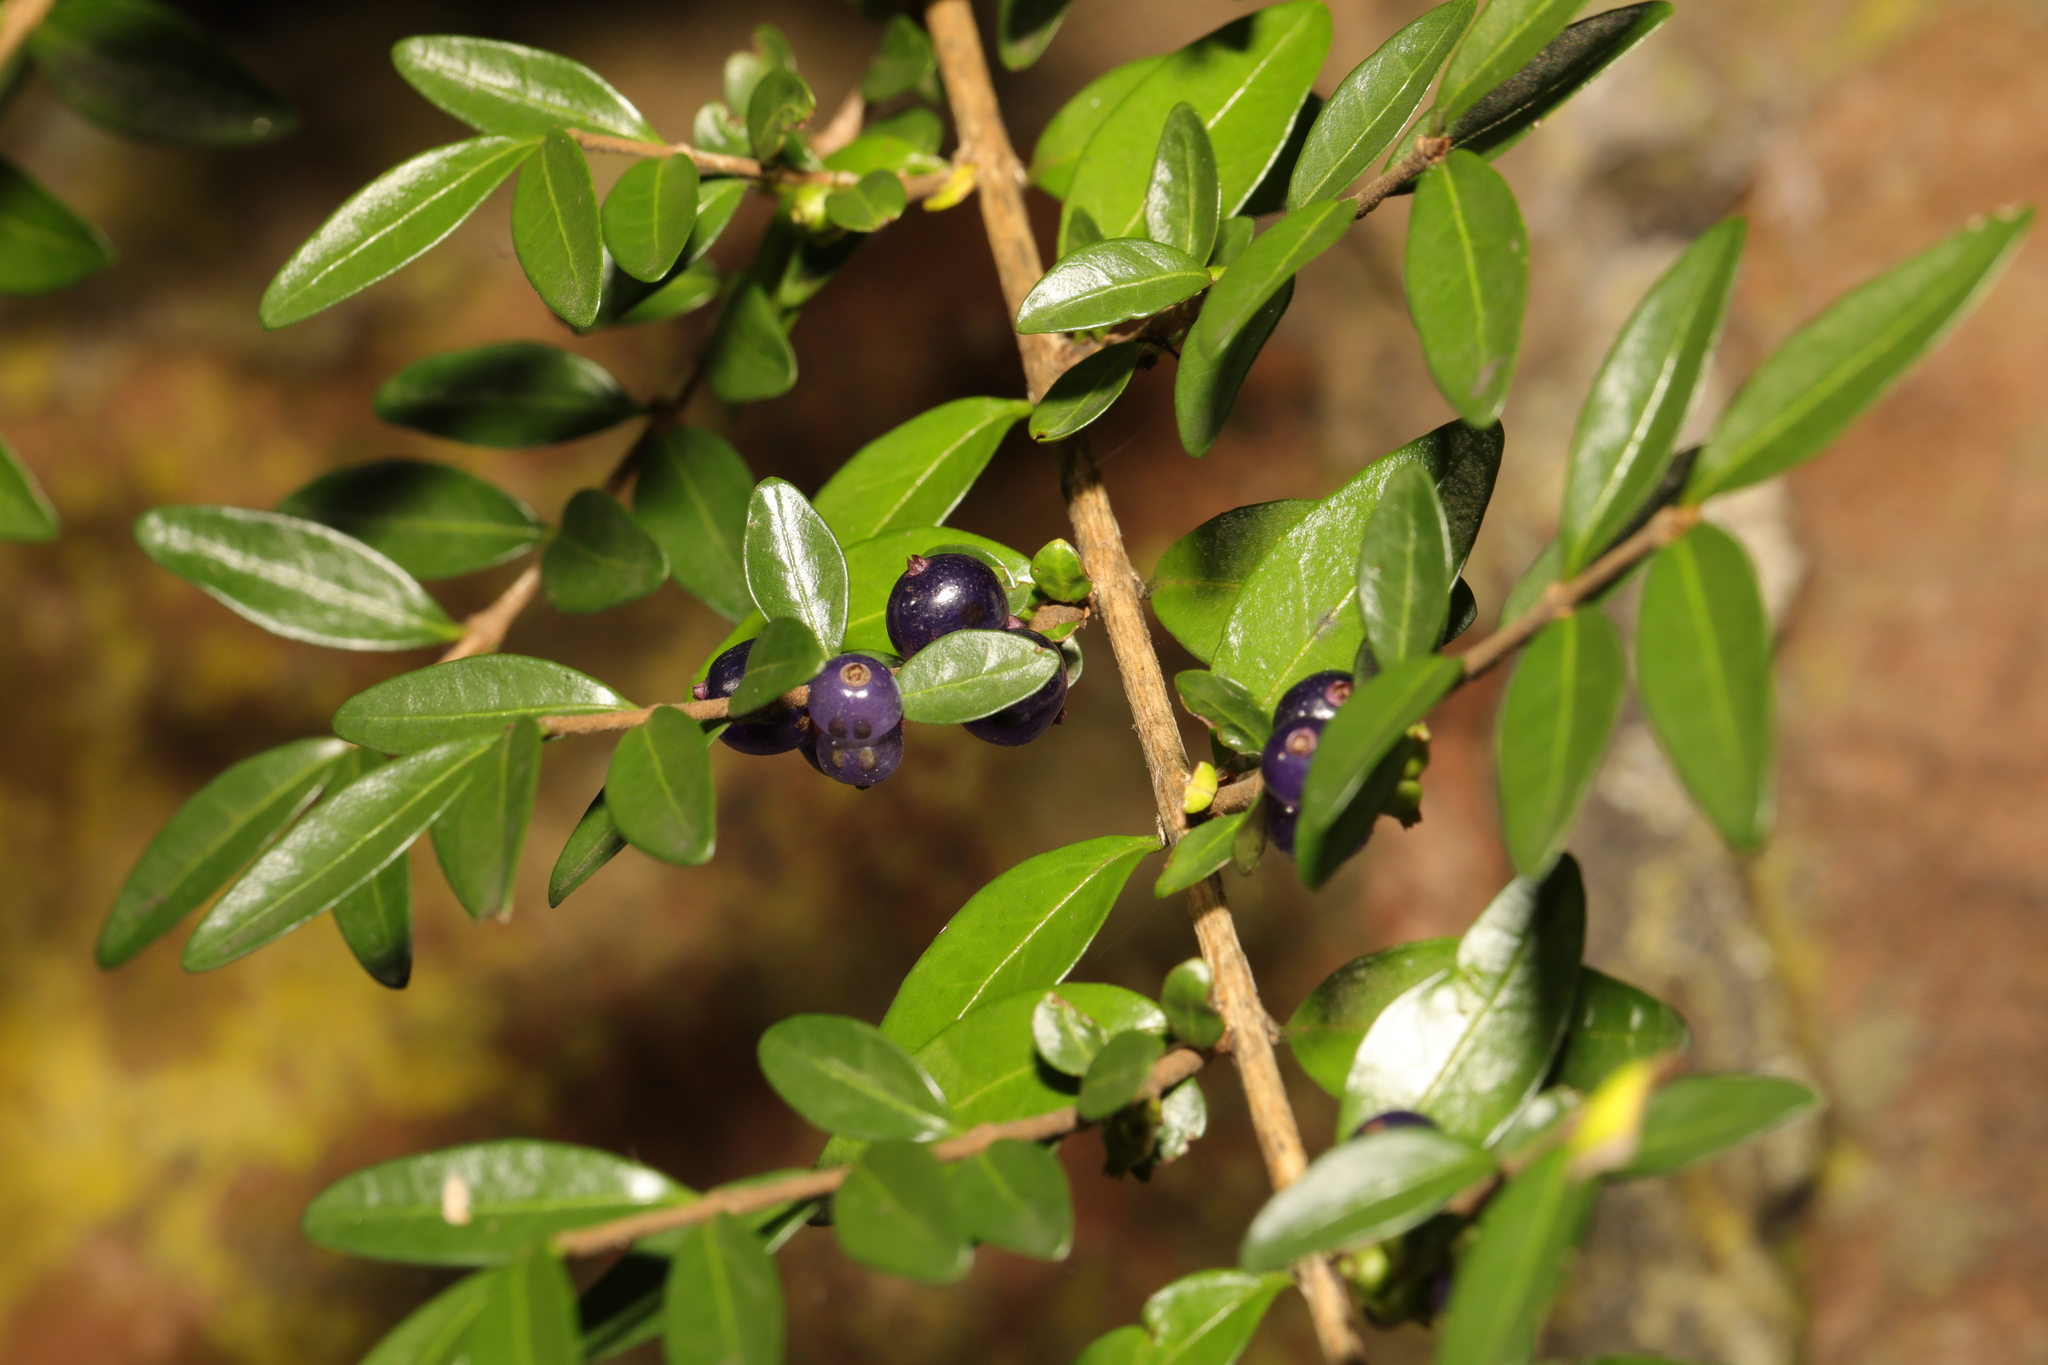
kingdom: Plantae
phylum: Tracheophyta
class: Magnoliopsida
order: Dipsacales
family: Caprifoliaceae
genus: Lonicera
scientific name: Lonicera ligustrina
